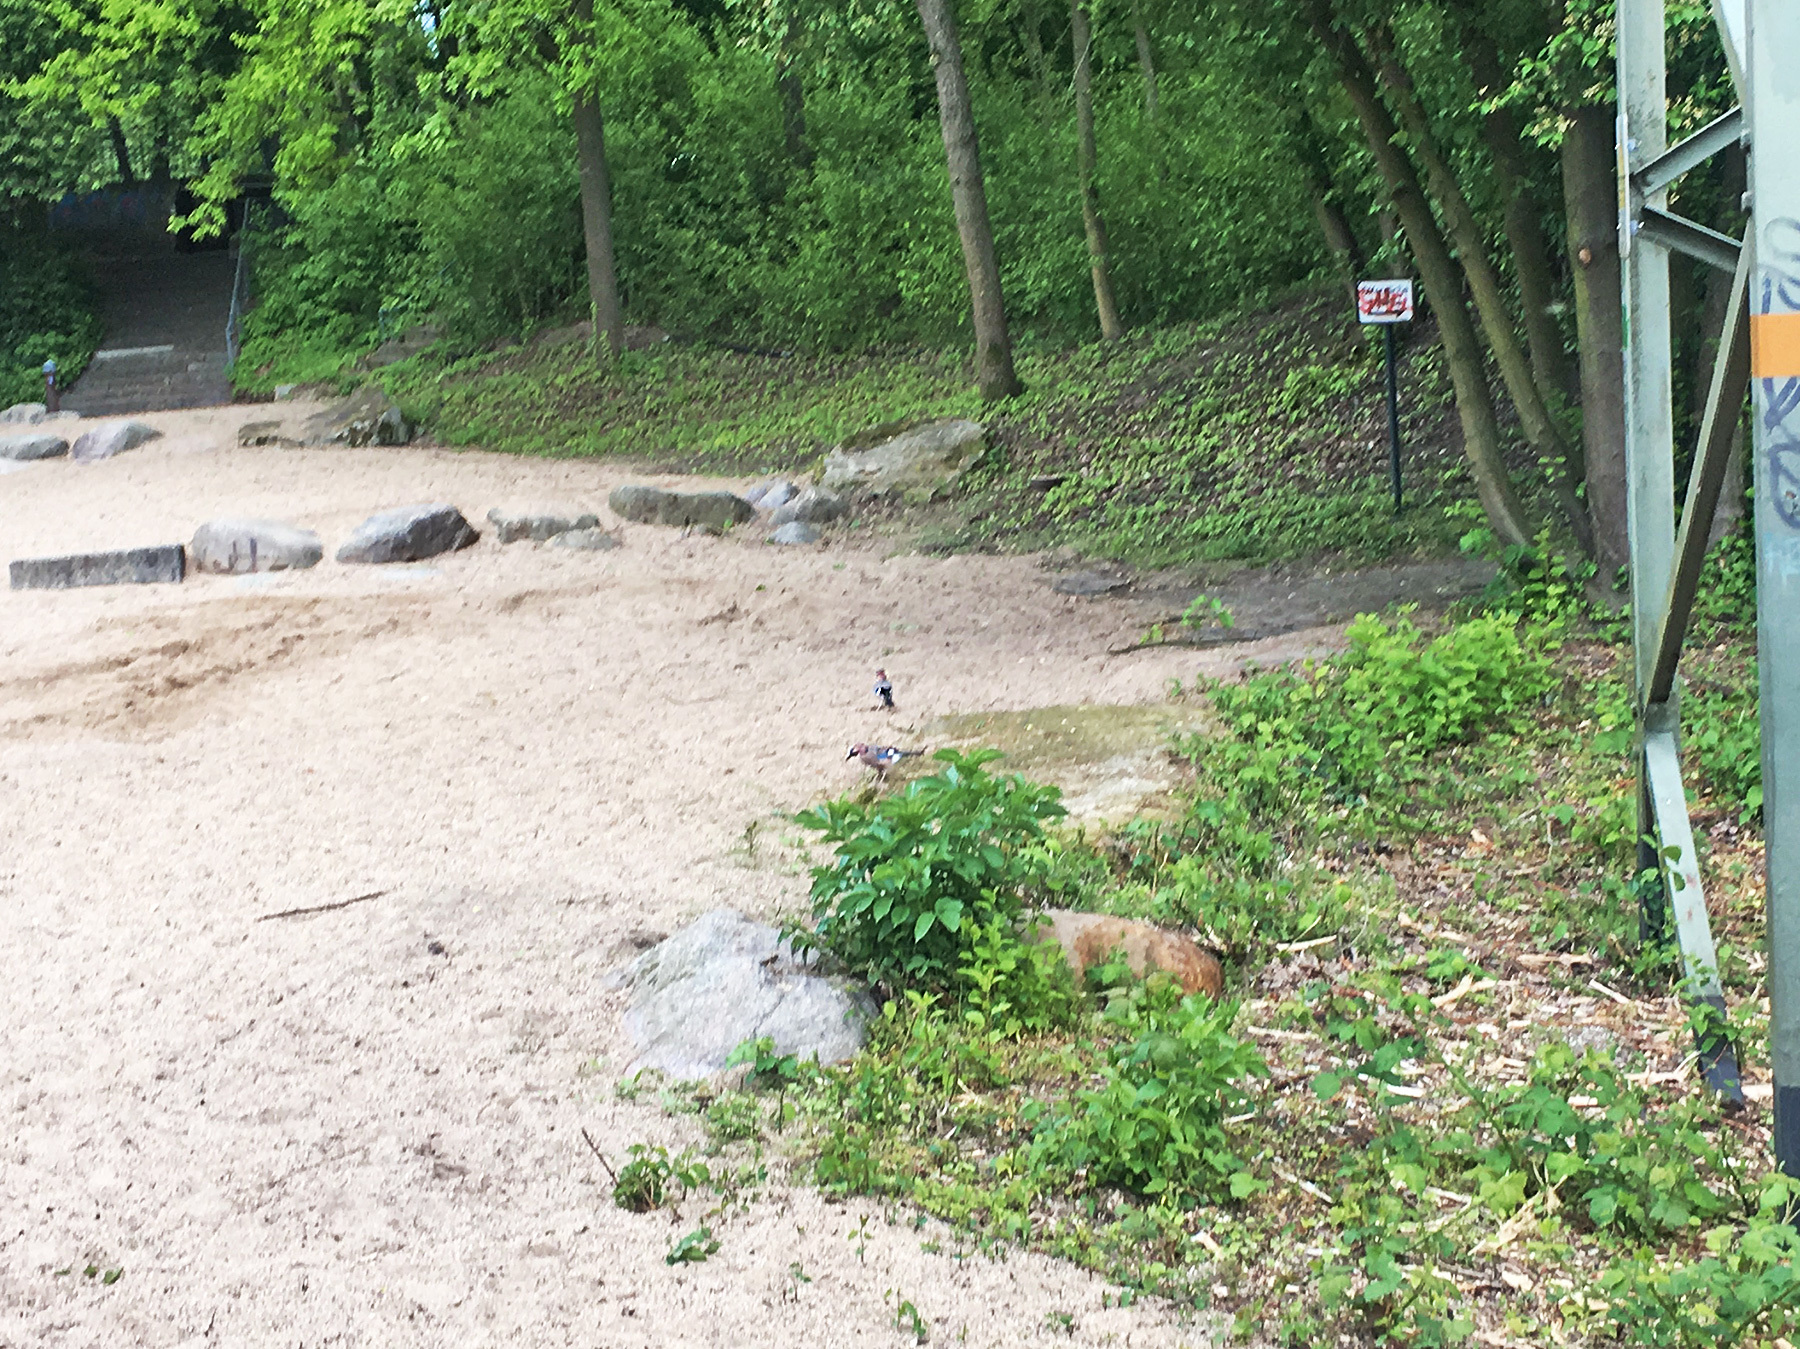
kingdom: Animalia
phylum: Chordata
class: Aves
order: Passeriformes
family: Corvidae
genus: Garrulus
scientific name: Garrulus glandarius
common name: Eurasian jay
